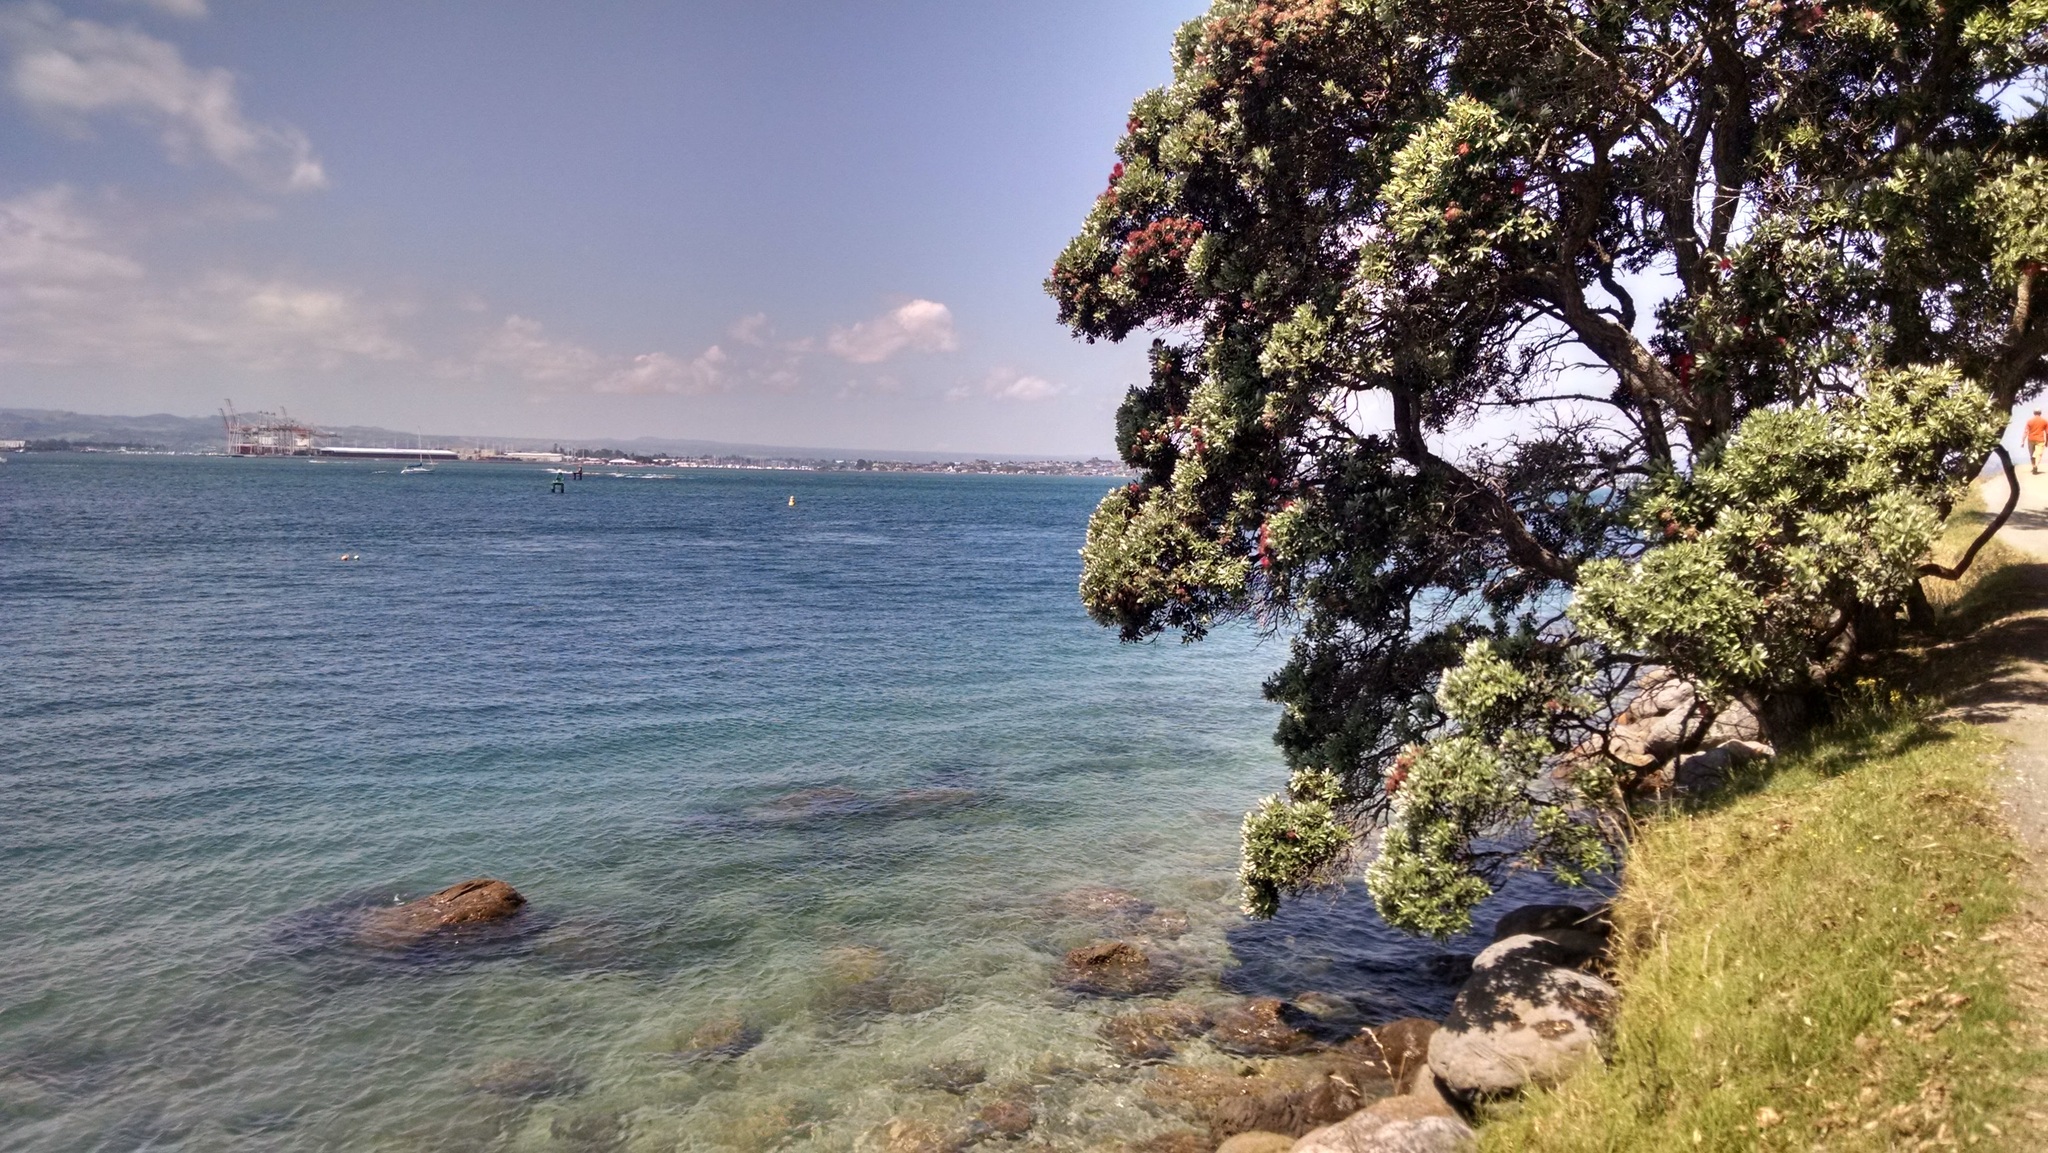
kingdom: Plantae
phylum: Tracheophyta
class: Magnoliopsida
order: Myrtales
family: Myrtaceae
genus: Metrosideros
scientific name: Metrosideros excelsa
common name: New zealand christmastree
